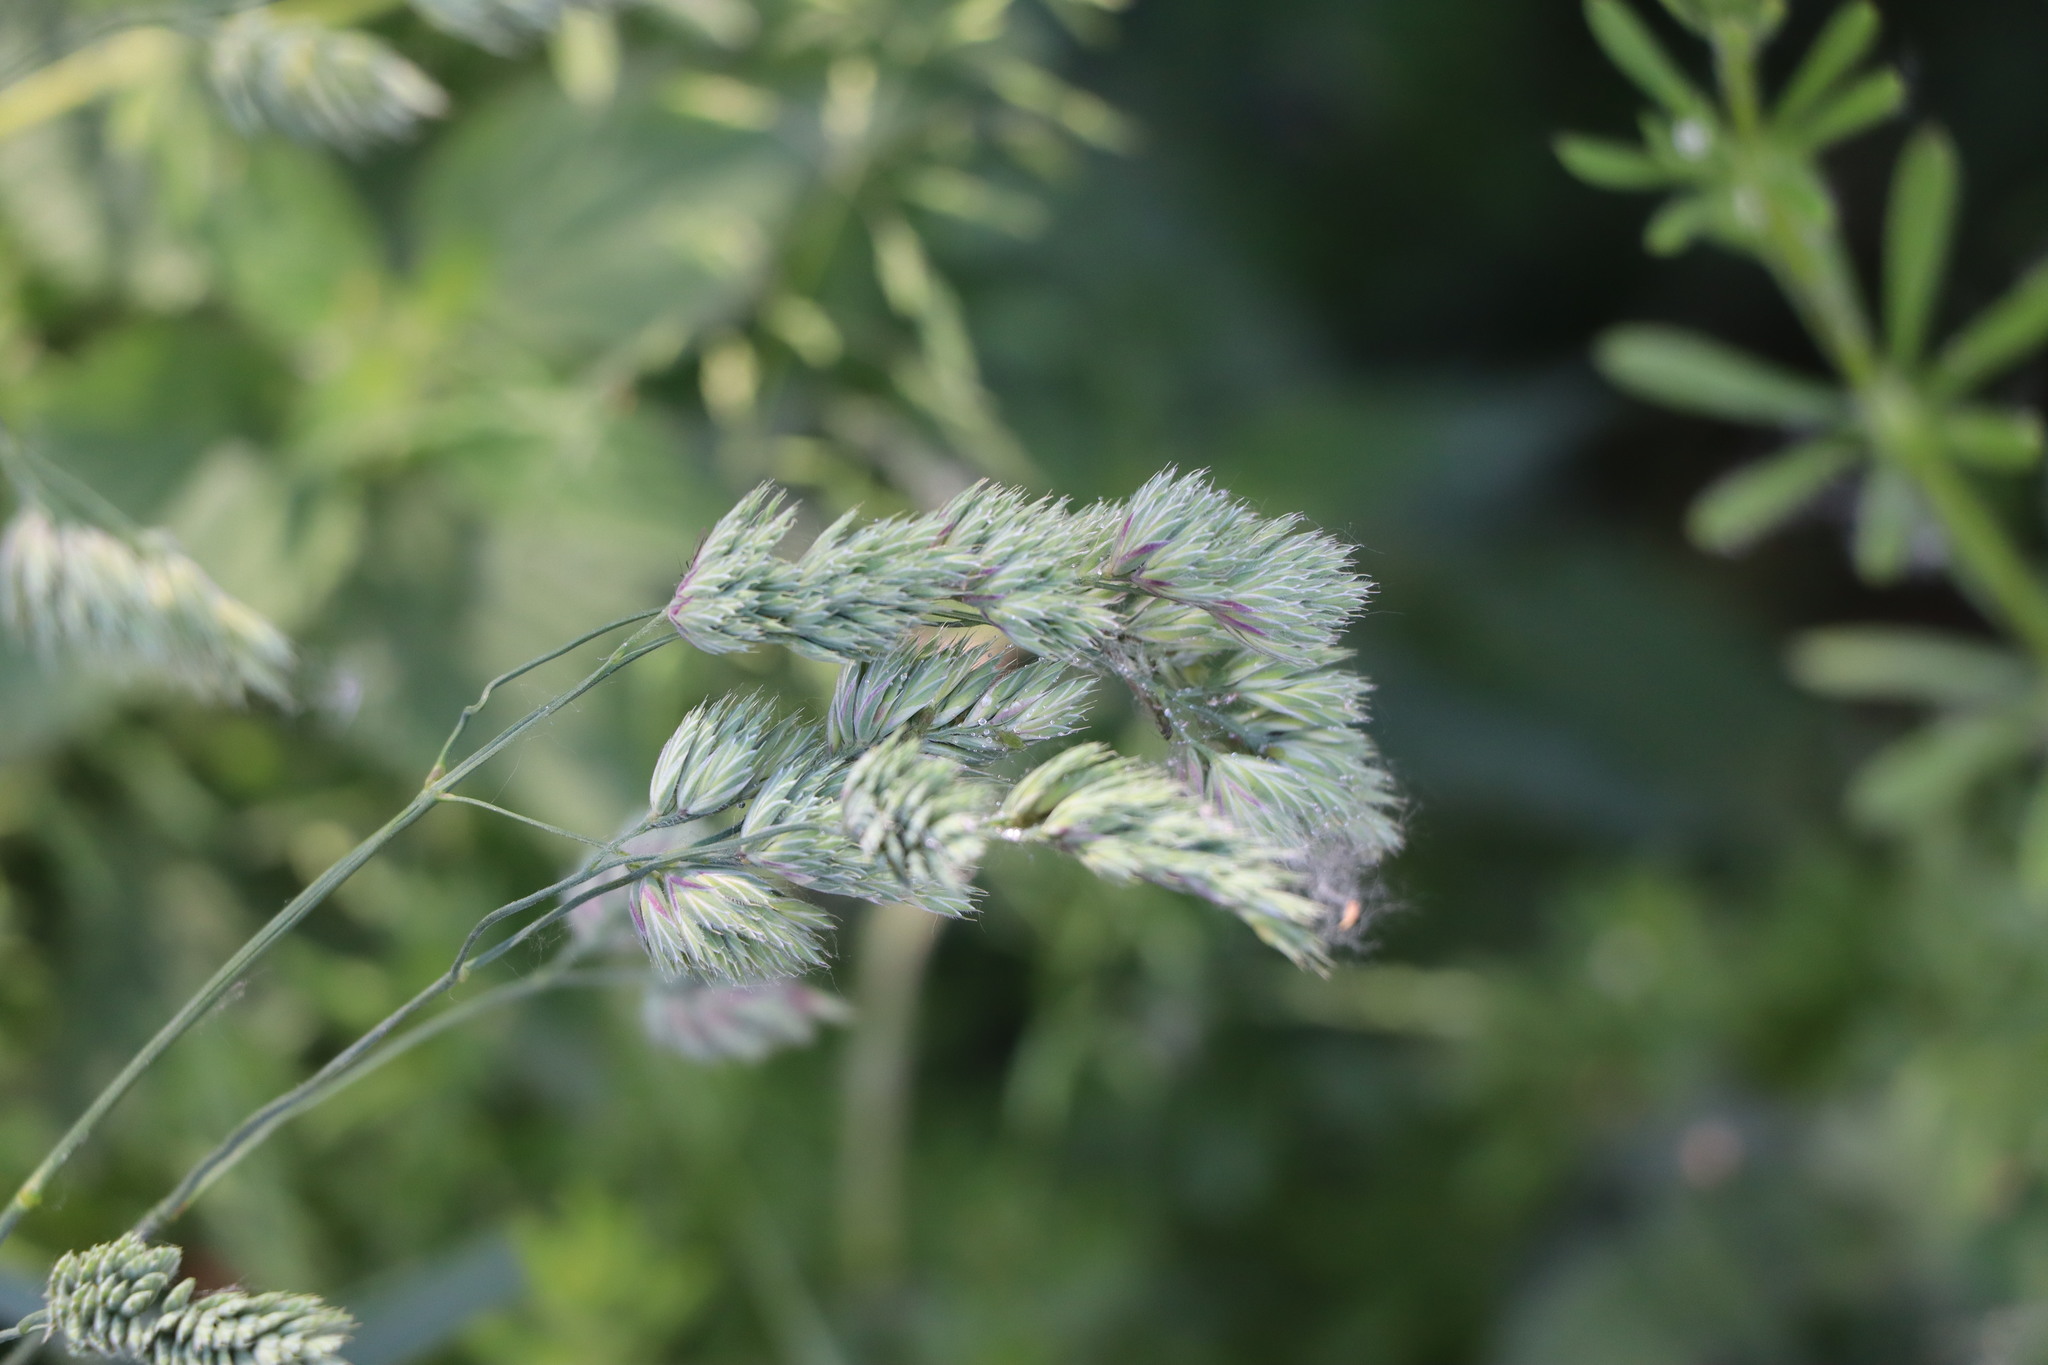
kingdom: Plantae
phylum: Tracheophyta
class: Liliopsida
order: Poales
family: Poaceae
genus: Dactylis
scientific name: Dactylis glomerata
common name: Orchardgrass
